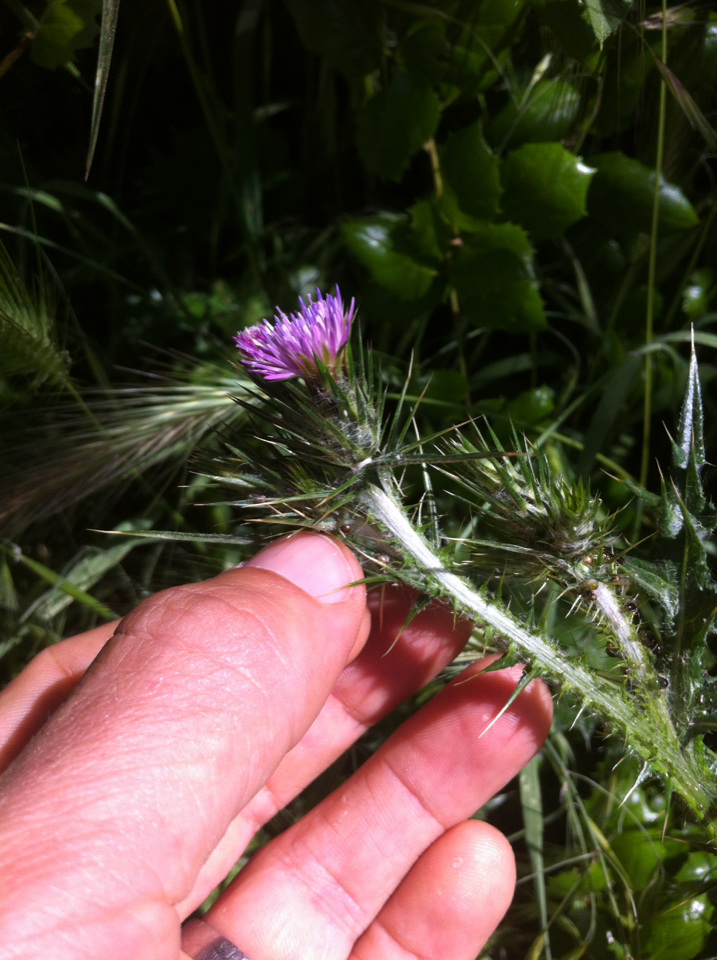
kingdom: Plantae
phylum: Tracheophyta
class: Magnoliopsida
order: Asterales
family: Asteraceae
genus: Carduus
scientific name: Carduus pycnocephalus
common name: Plymouth thistle
